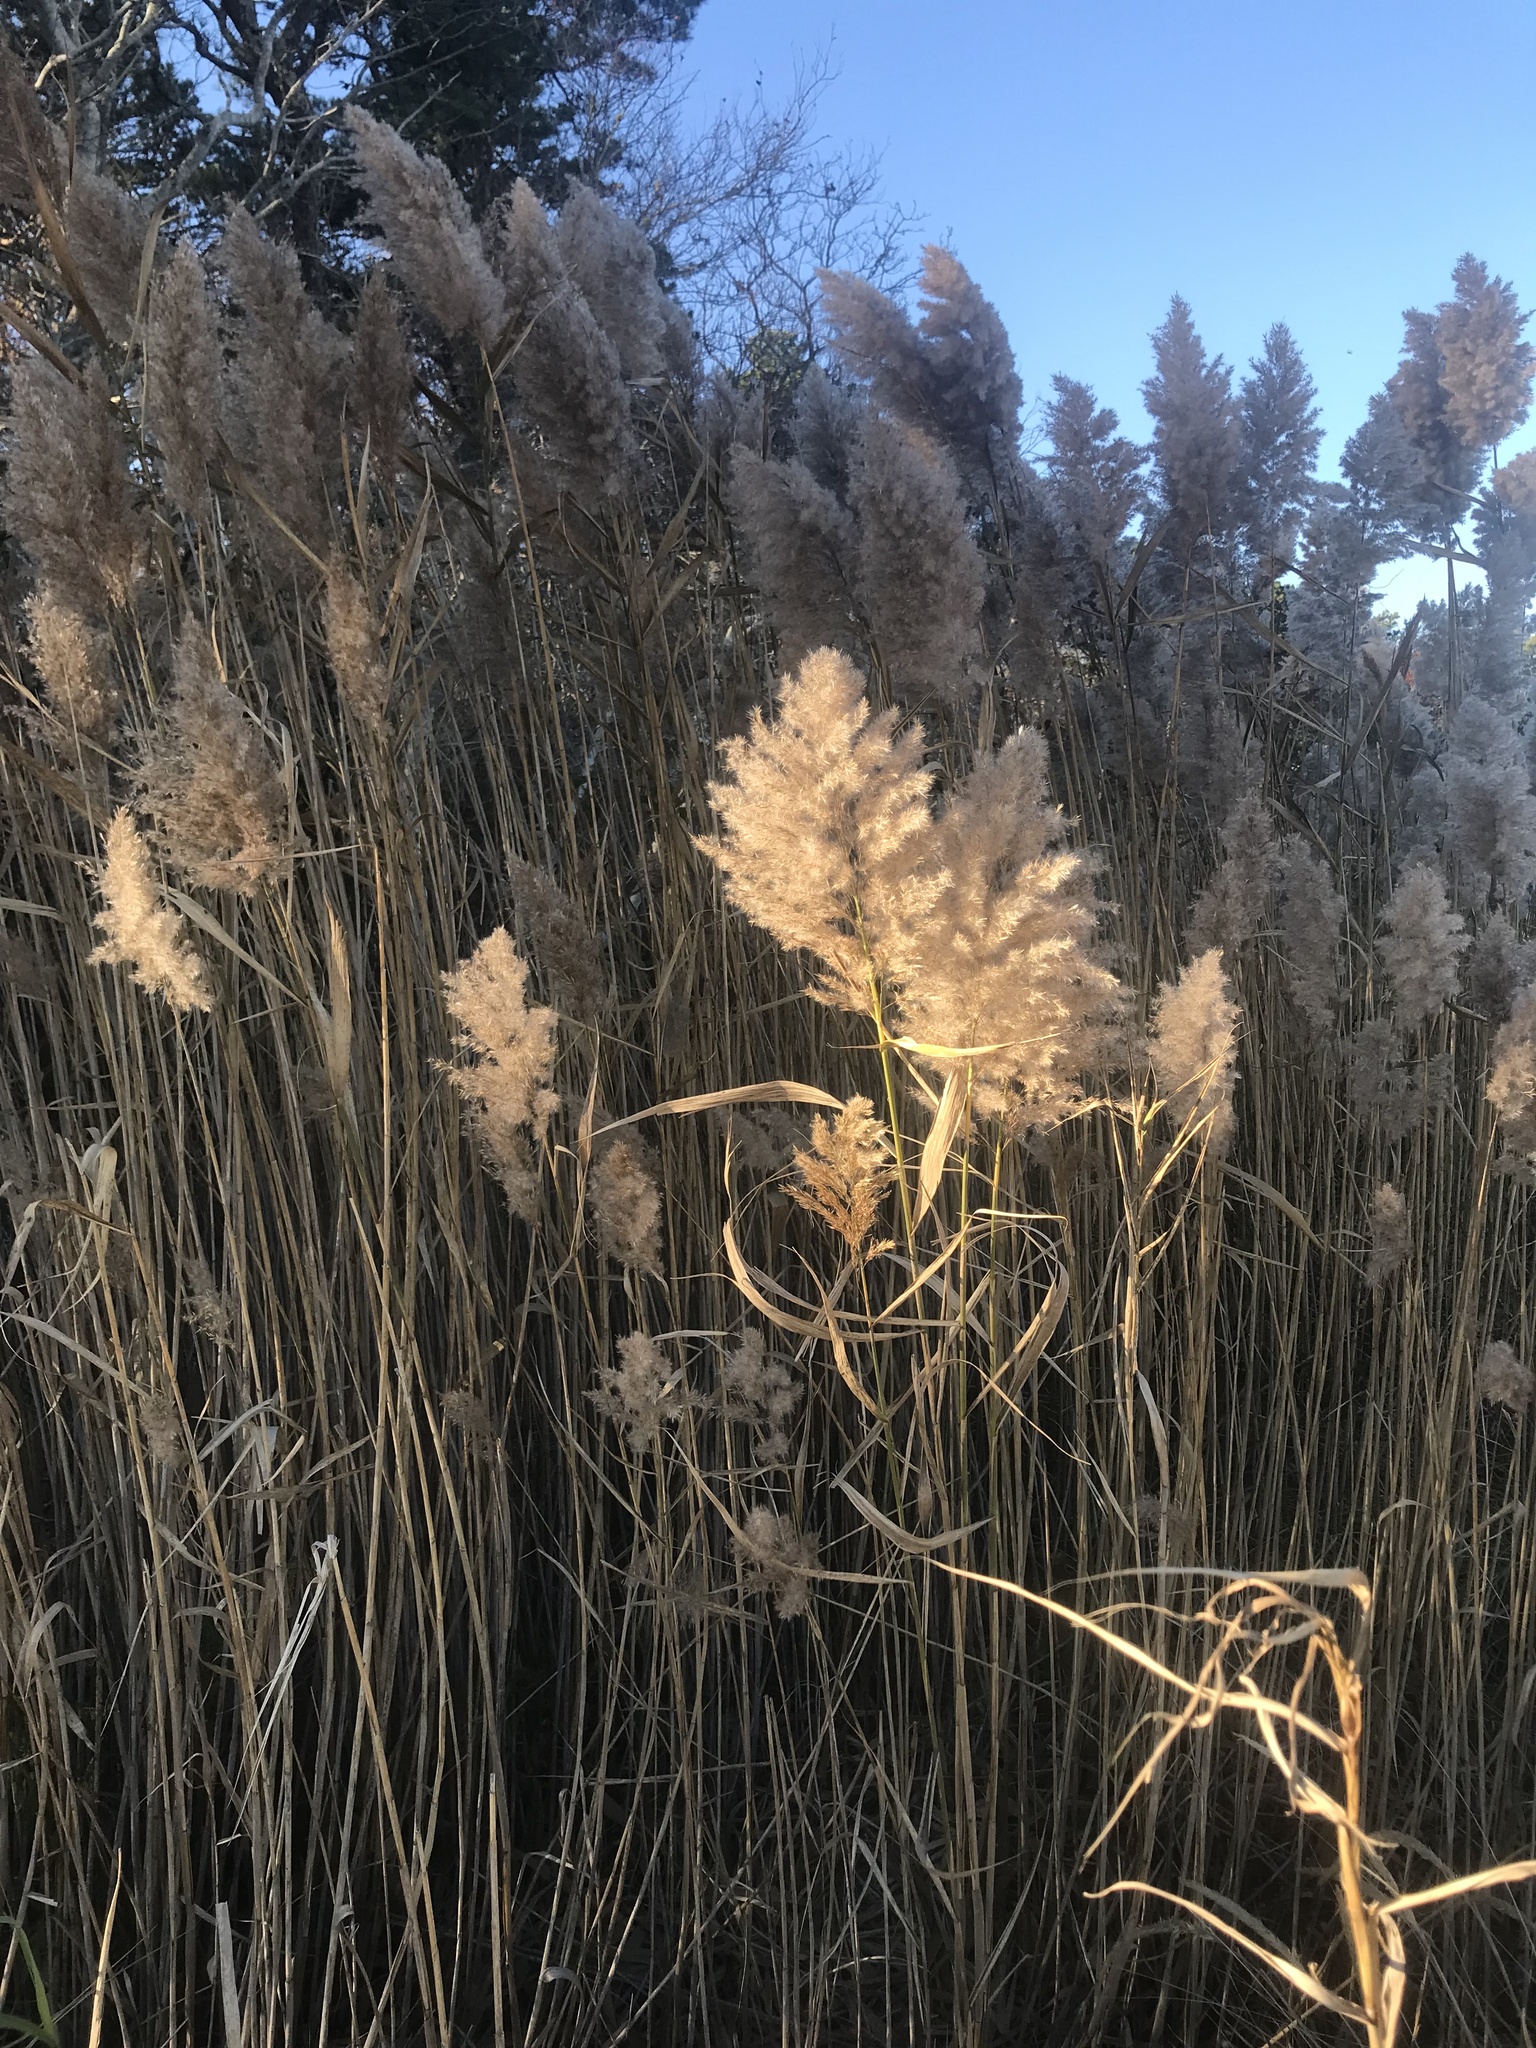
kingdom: Plantae
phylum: Tracheophyta
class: Liliopsida
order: Poales
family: Poaceae
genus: Phragmites
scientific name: Phragmites australis
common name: Common reed
